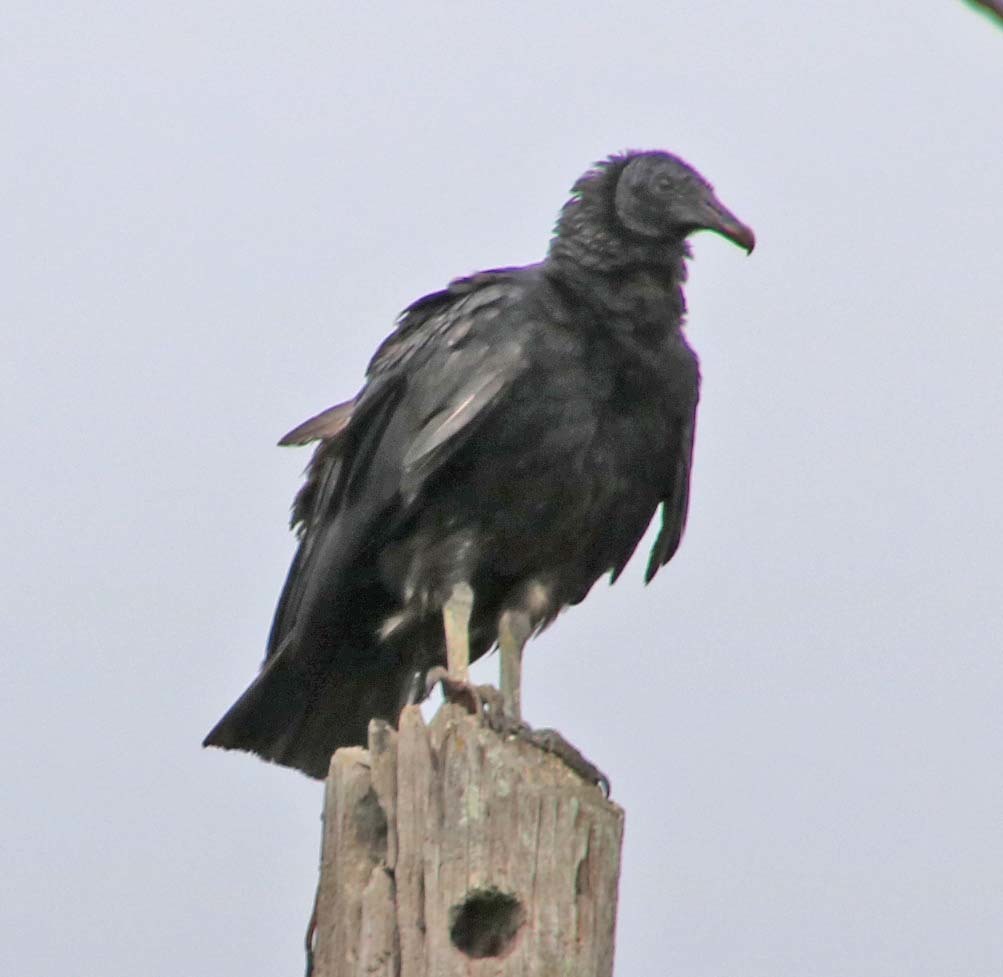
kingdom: Animalia
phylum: Chordata
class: Aves
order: Accipitriformes
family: Cathartidae
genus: Coragyps
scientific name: Coragyps atratus
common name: Black vulture
